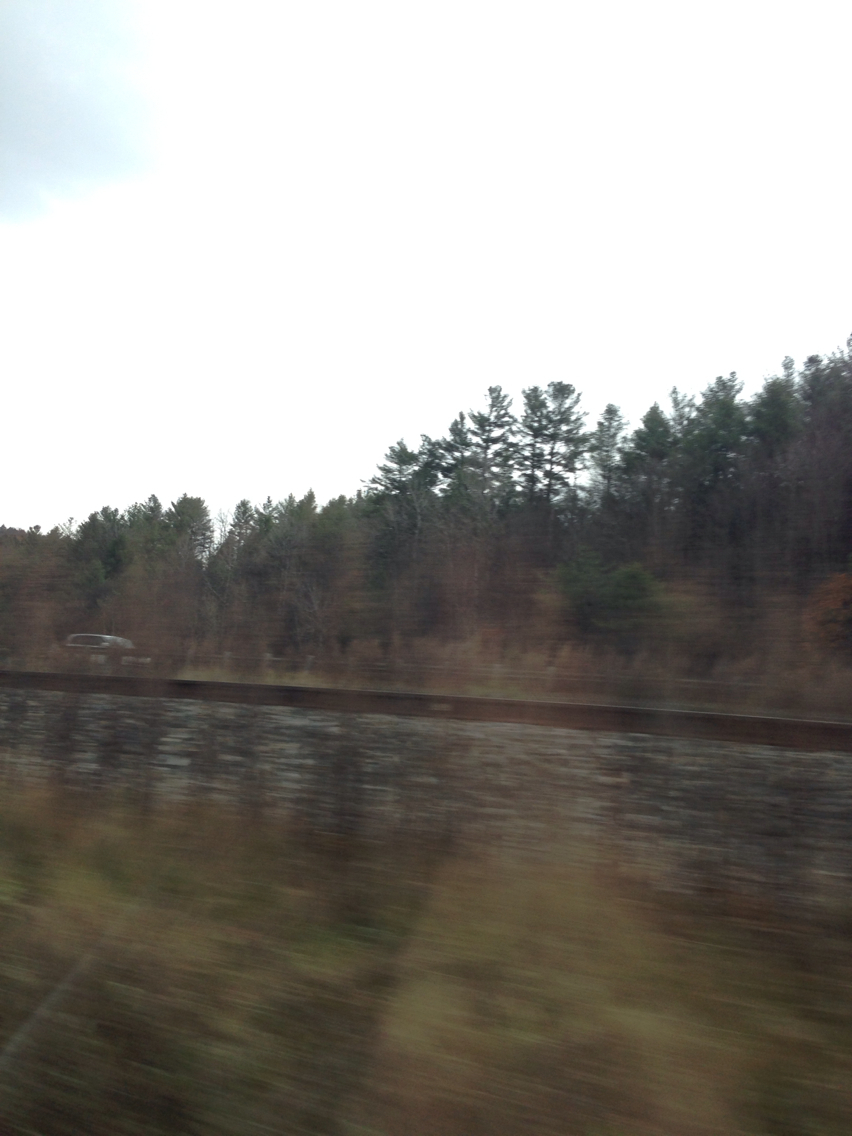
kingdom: Plantae
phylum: Tracheophyta
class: Pinopsida
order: Pinales
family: Pinaceae
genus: Pinus
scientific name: Pinus strobus
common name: Weymouth pine
